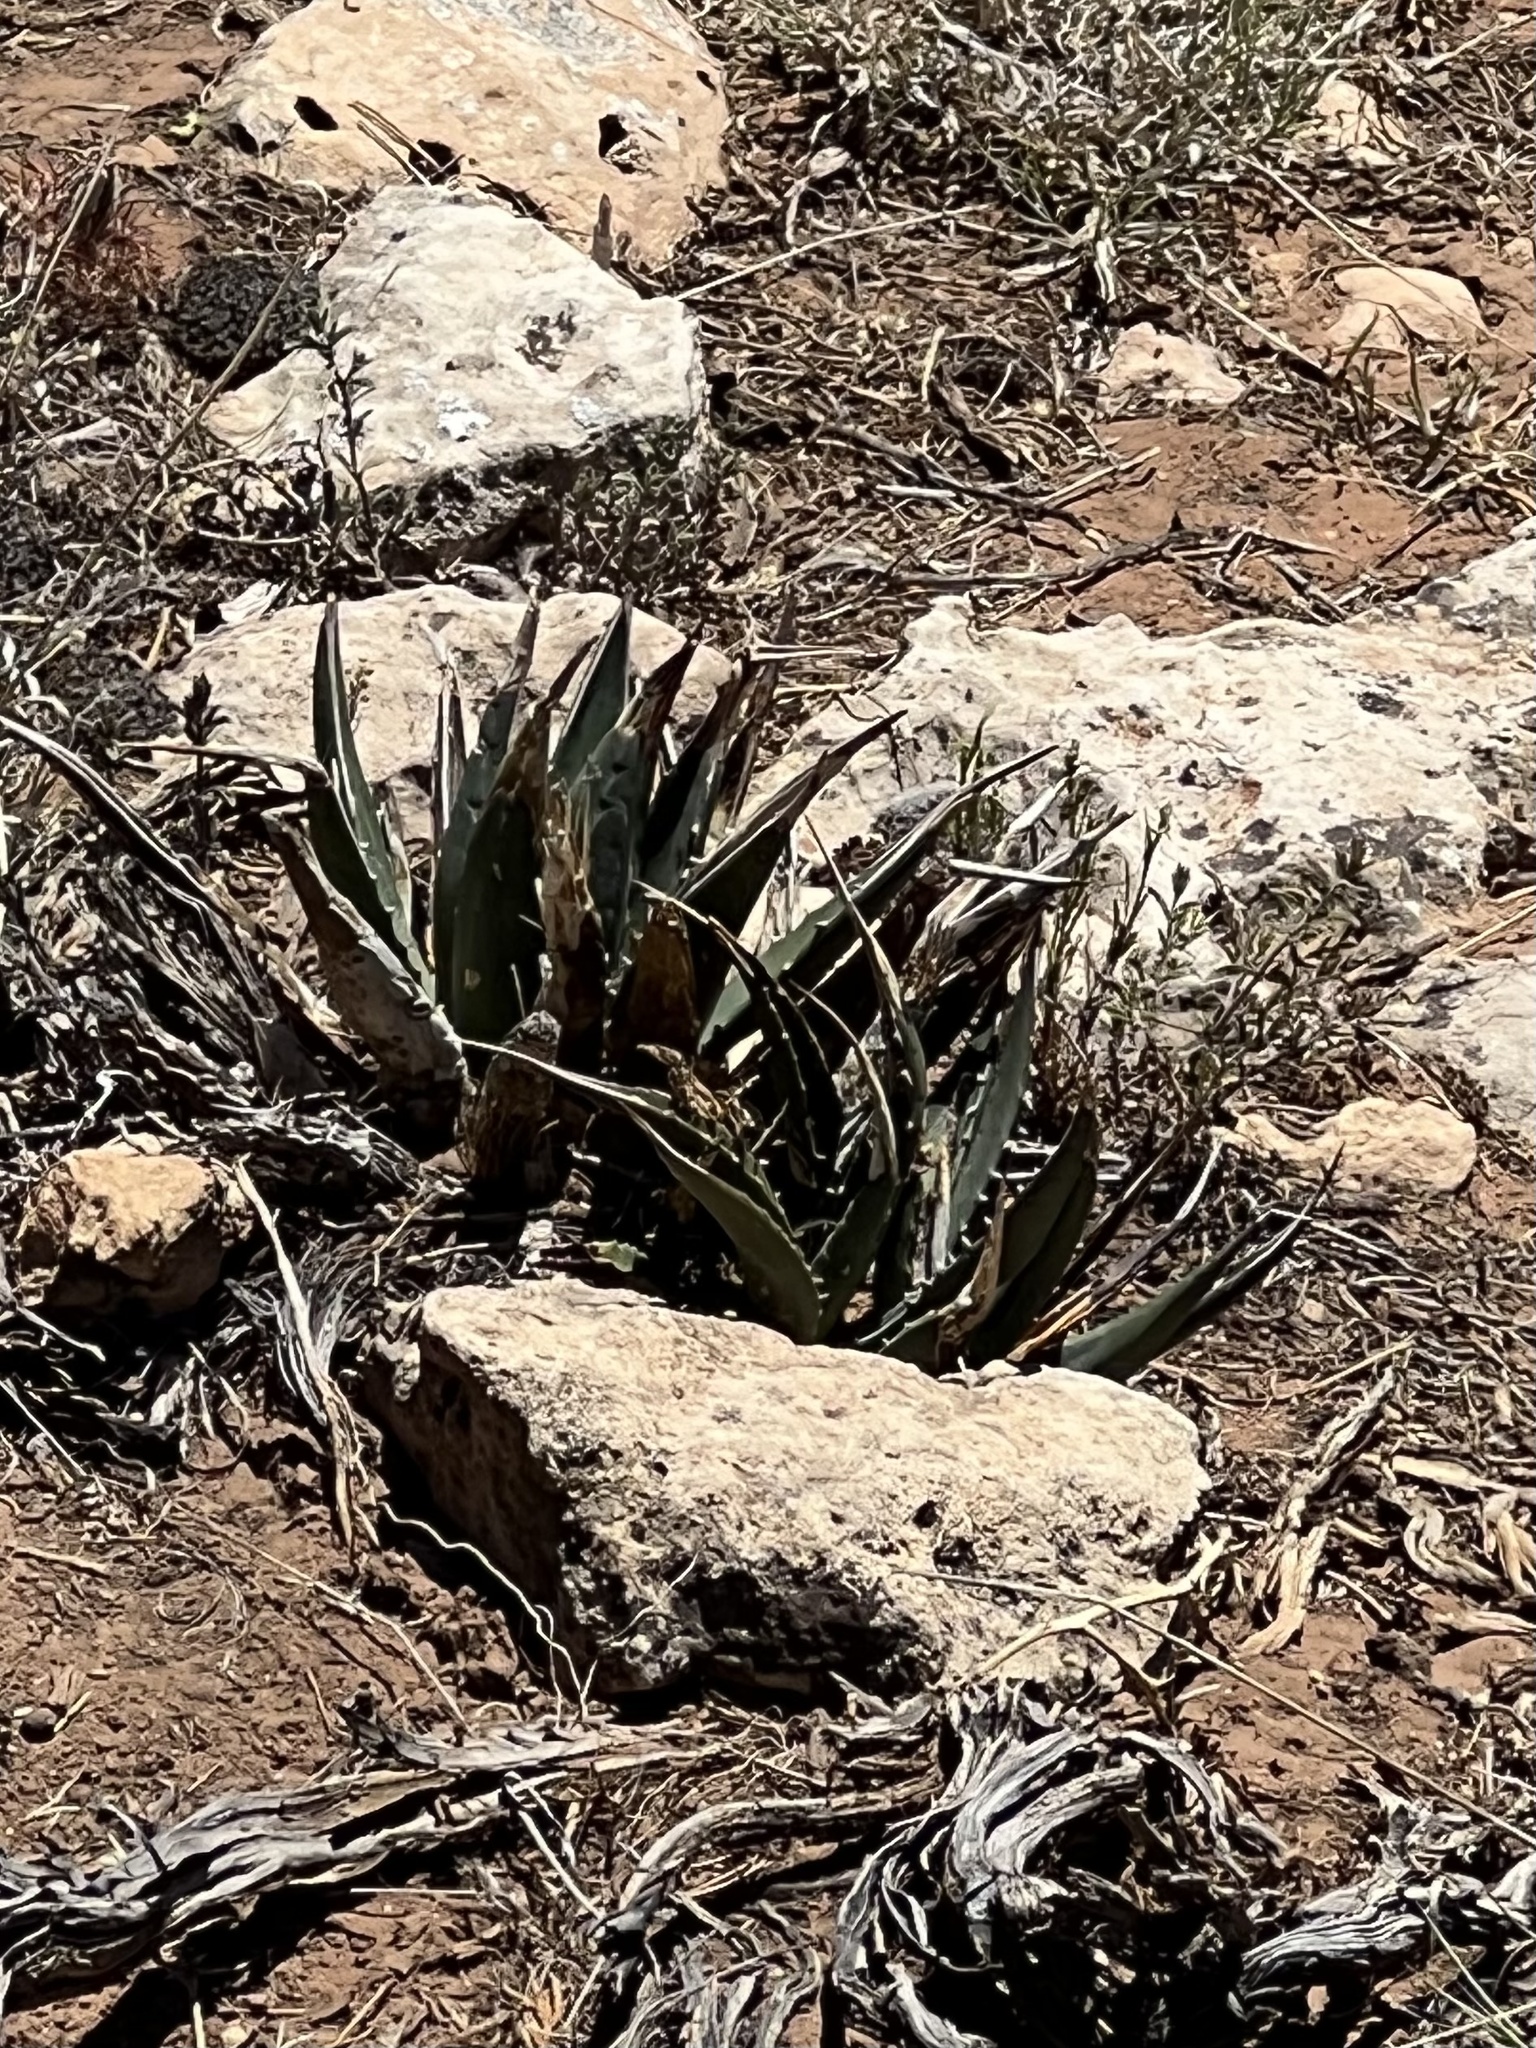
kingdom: Plantae
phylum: Tracheophyta
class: Liliopsida
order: Asparagales
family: Asparagaceae
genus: Agave
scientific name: Agave utahensis
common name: Utah agave
